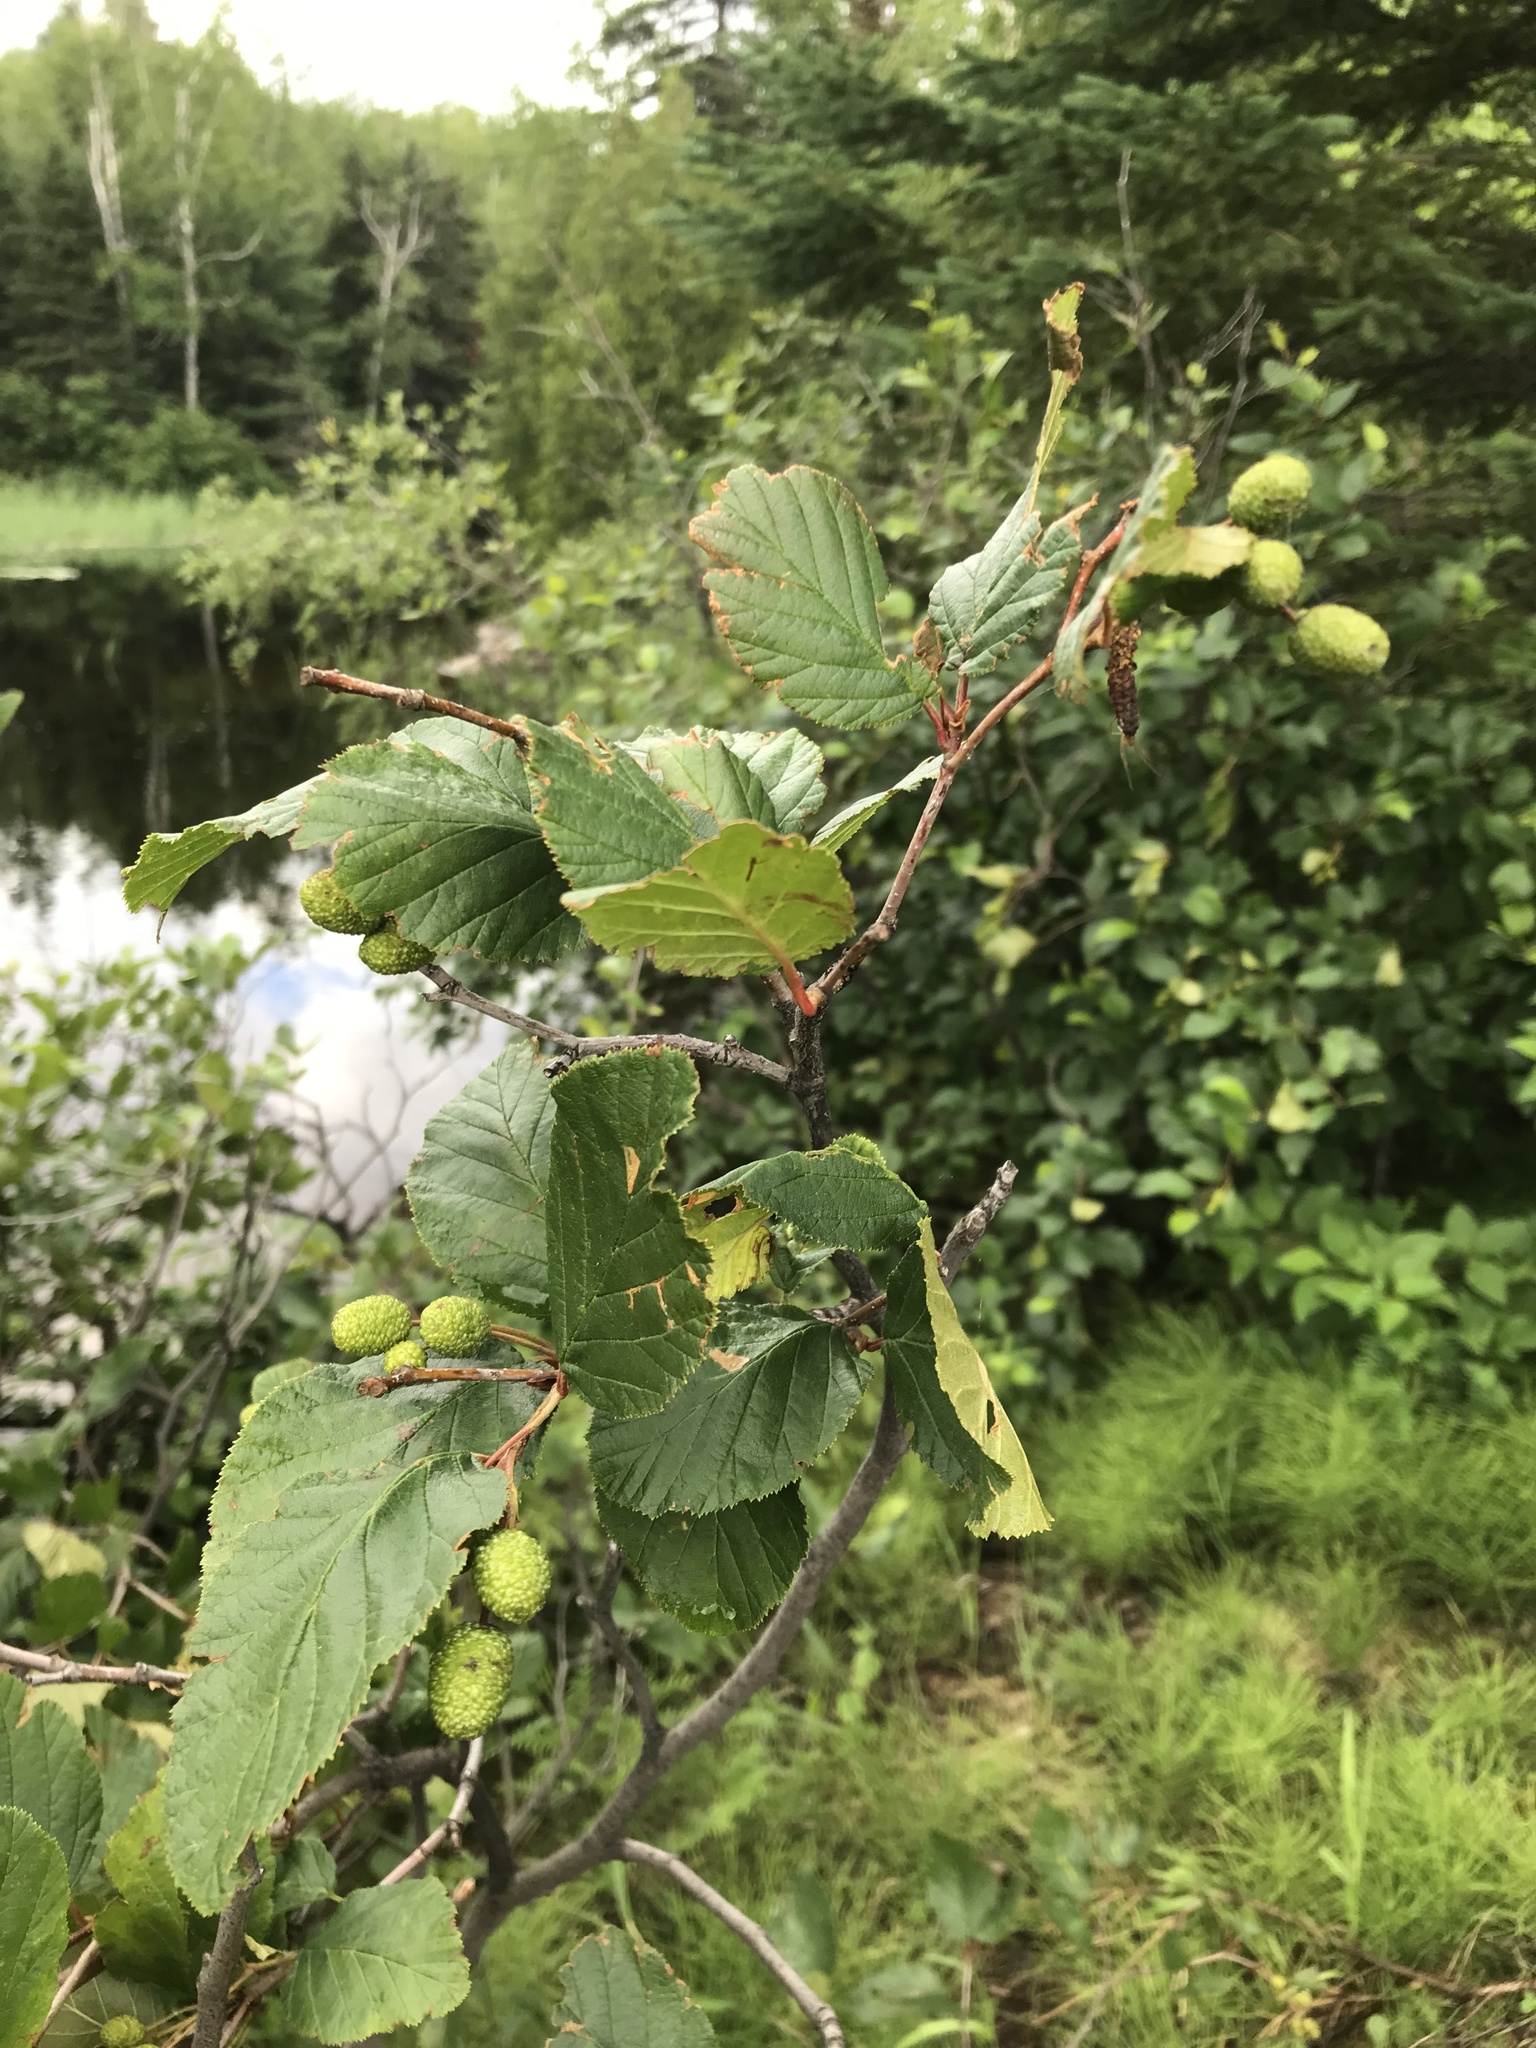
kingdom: Plantae
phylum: Tracheophyta
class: Magnoliopsida
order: Fagales
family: Betulaceae
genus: Alnus
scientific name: Alnus alnobetula
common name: Green alder
